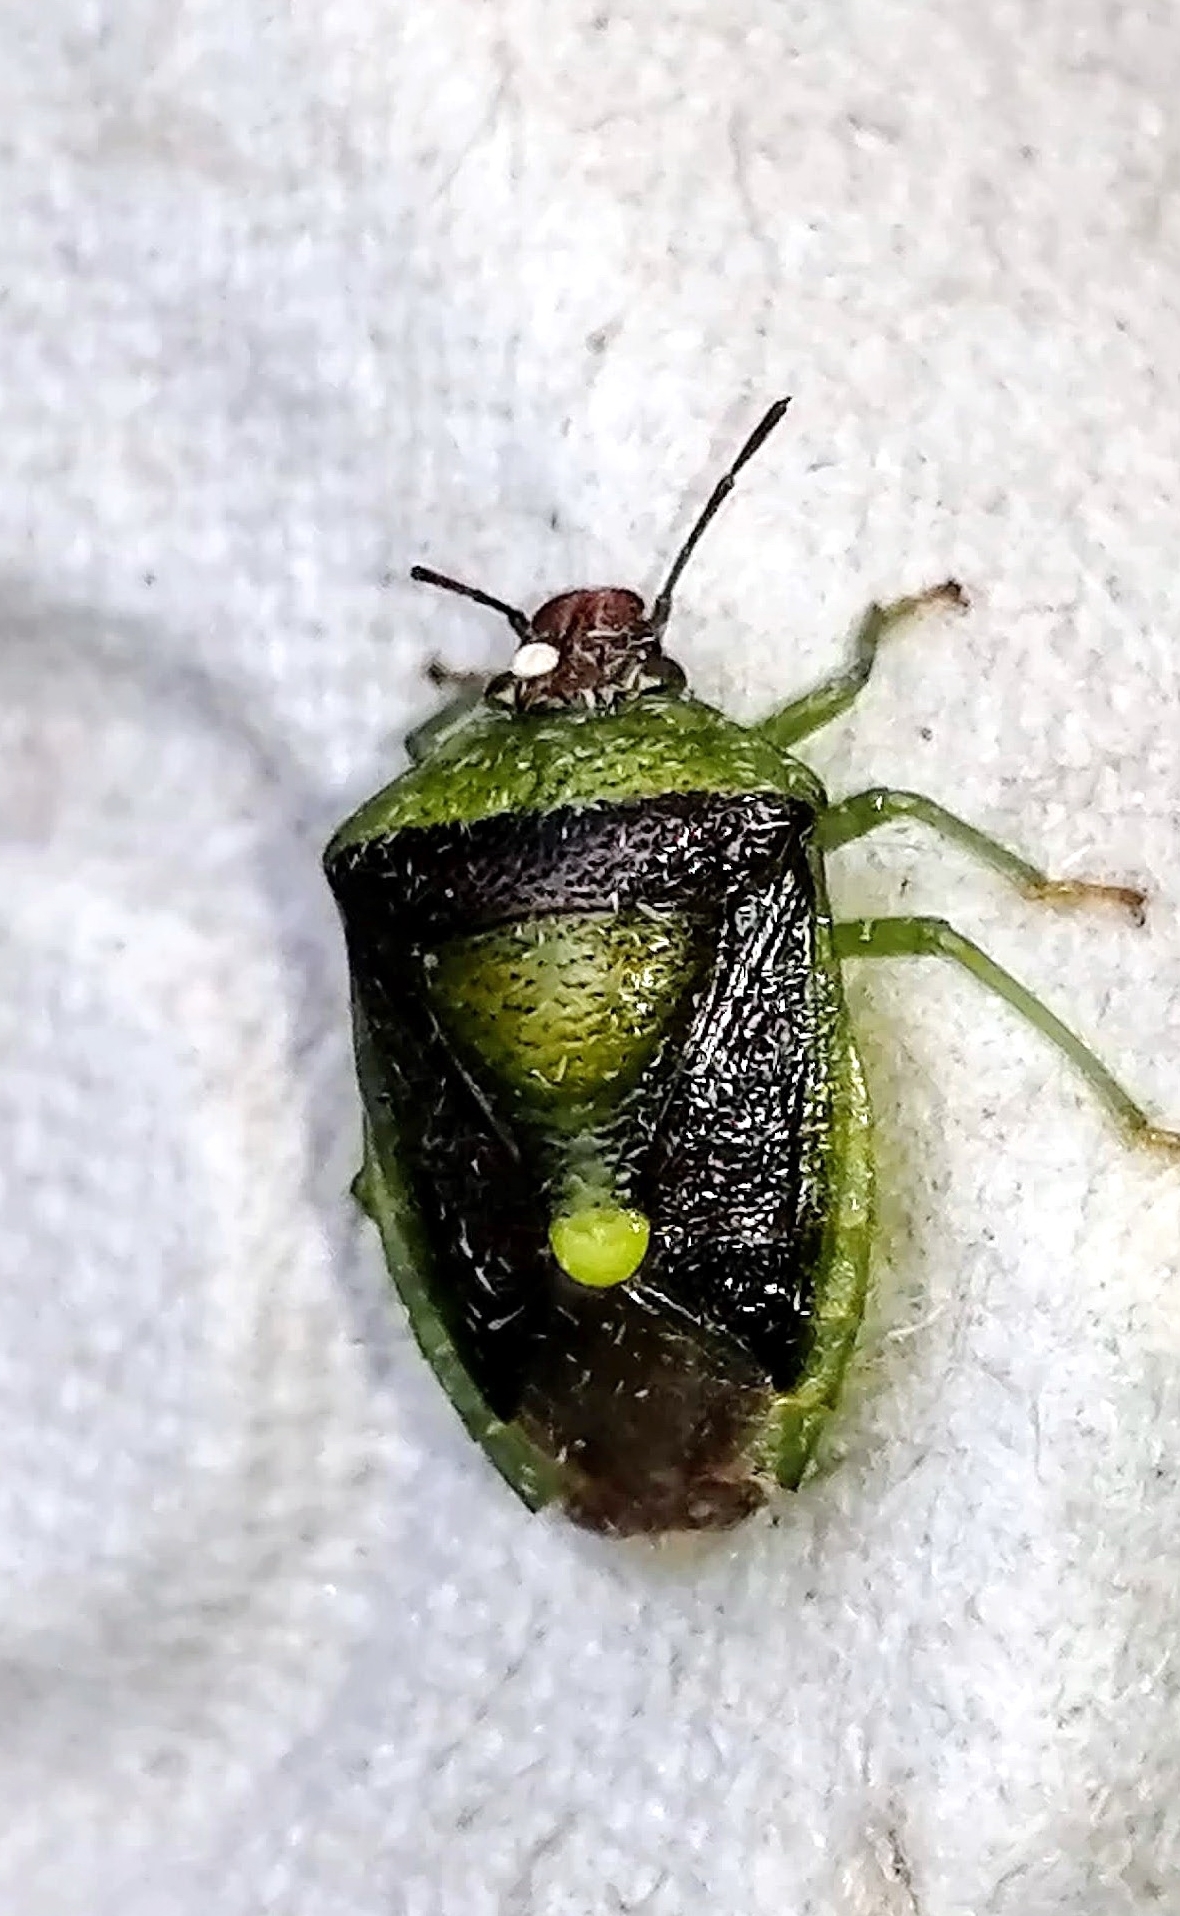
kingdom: Animalia
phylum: Arthropoda
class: Insecta
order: Hemiptera
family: Pentatomidae
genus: Banasa
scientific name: Banasa dimidiata
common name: Green burgundy stink bug
